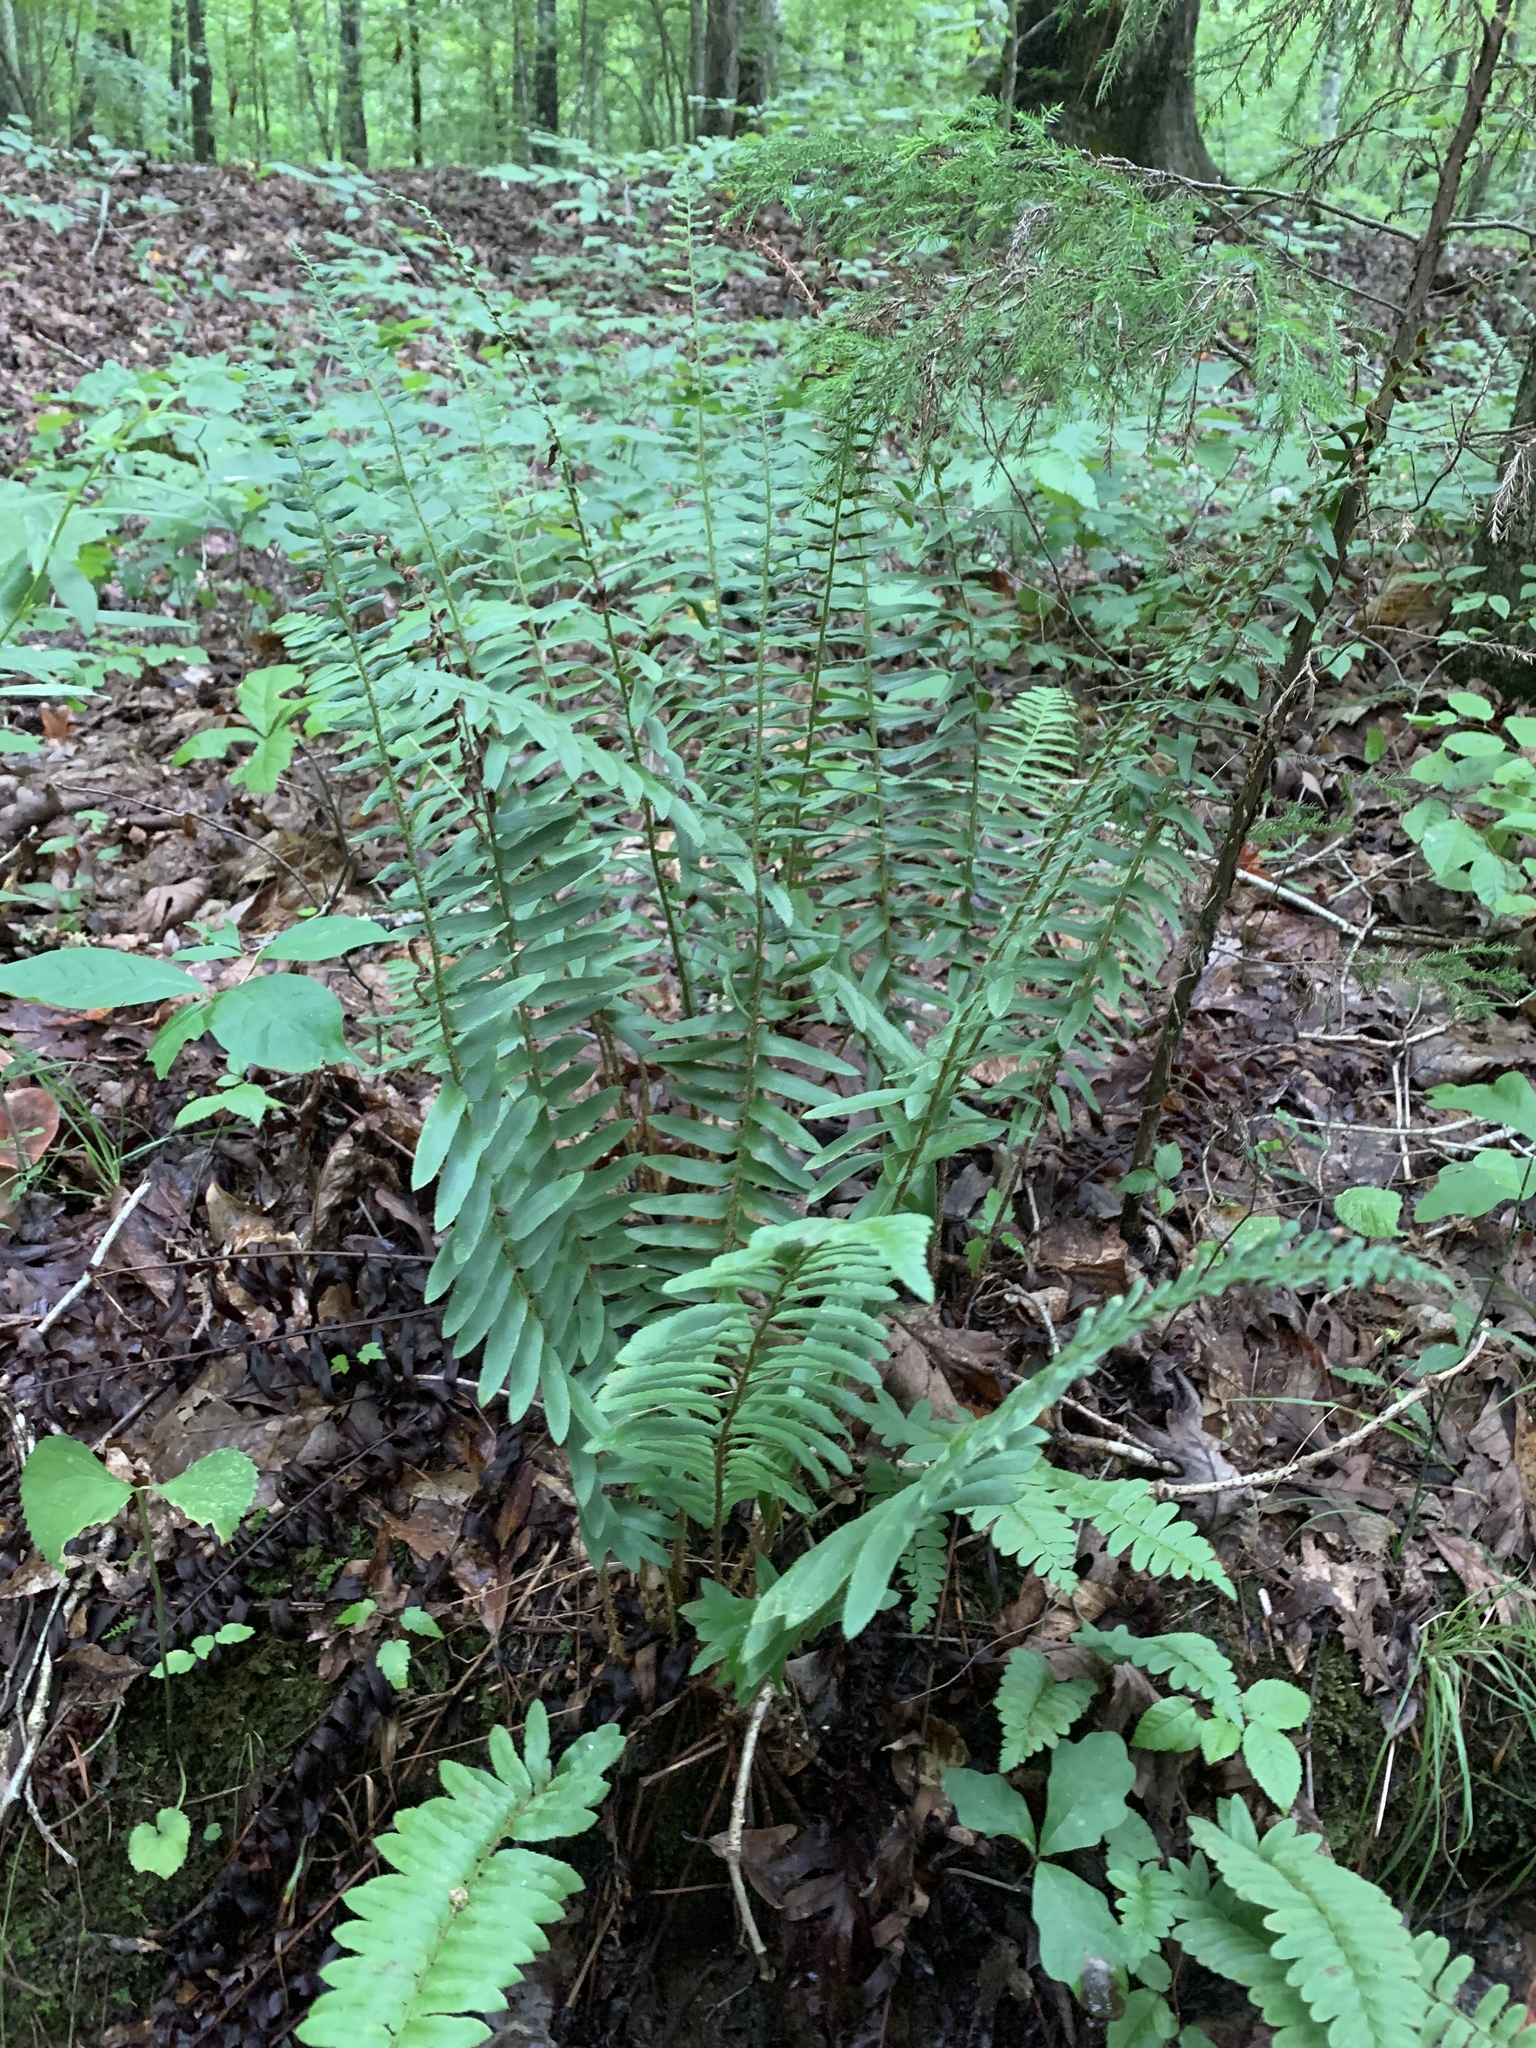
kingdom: Plantae
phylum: Tracheophyta
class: Polypodiopsida
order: Polypodiales
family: Dryopteridaceae
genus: Polystichum
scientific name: Polystichum acrostichoides
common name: Christmas fern
